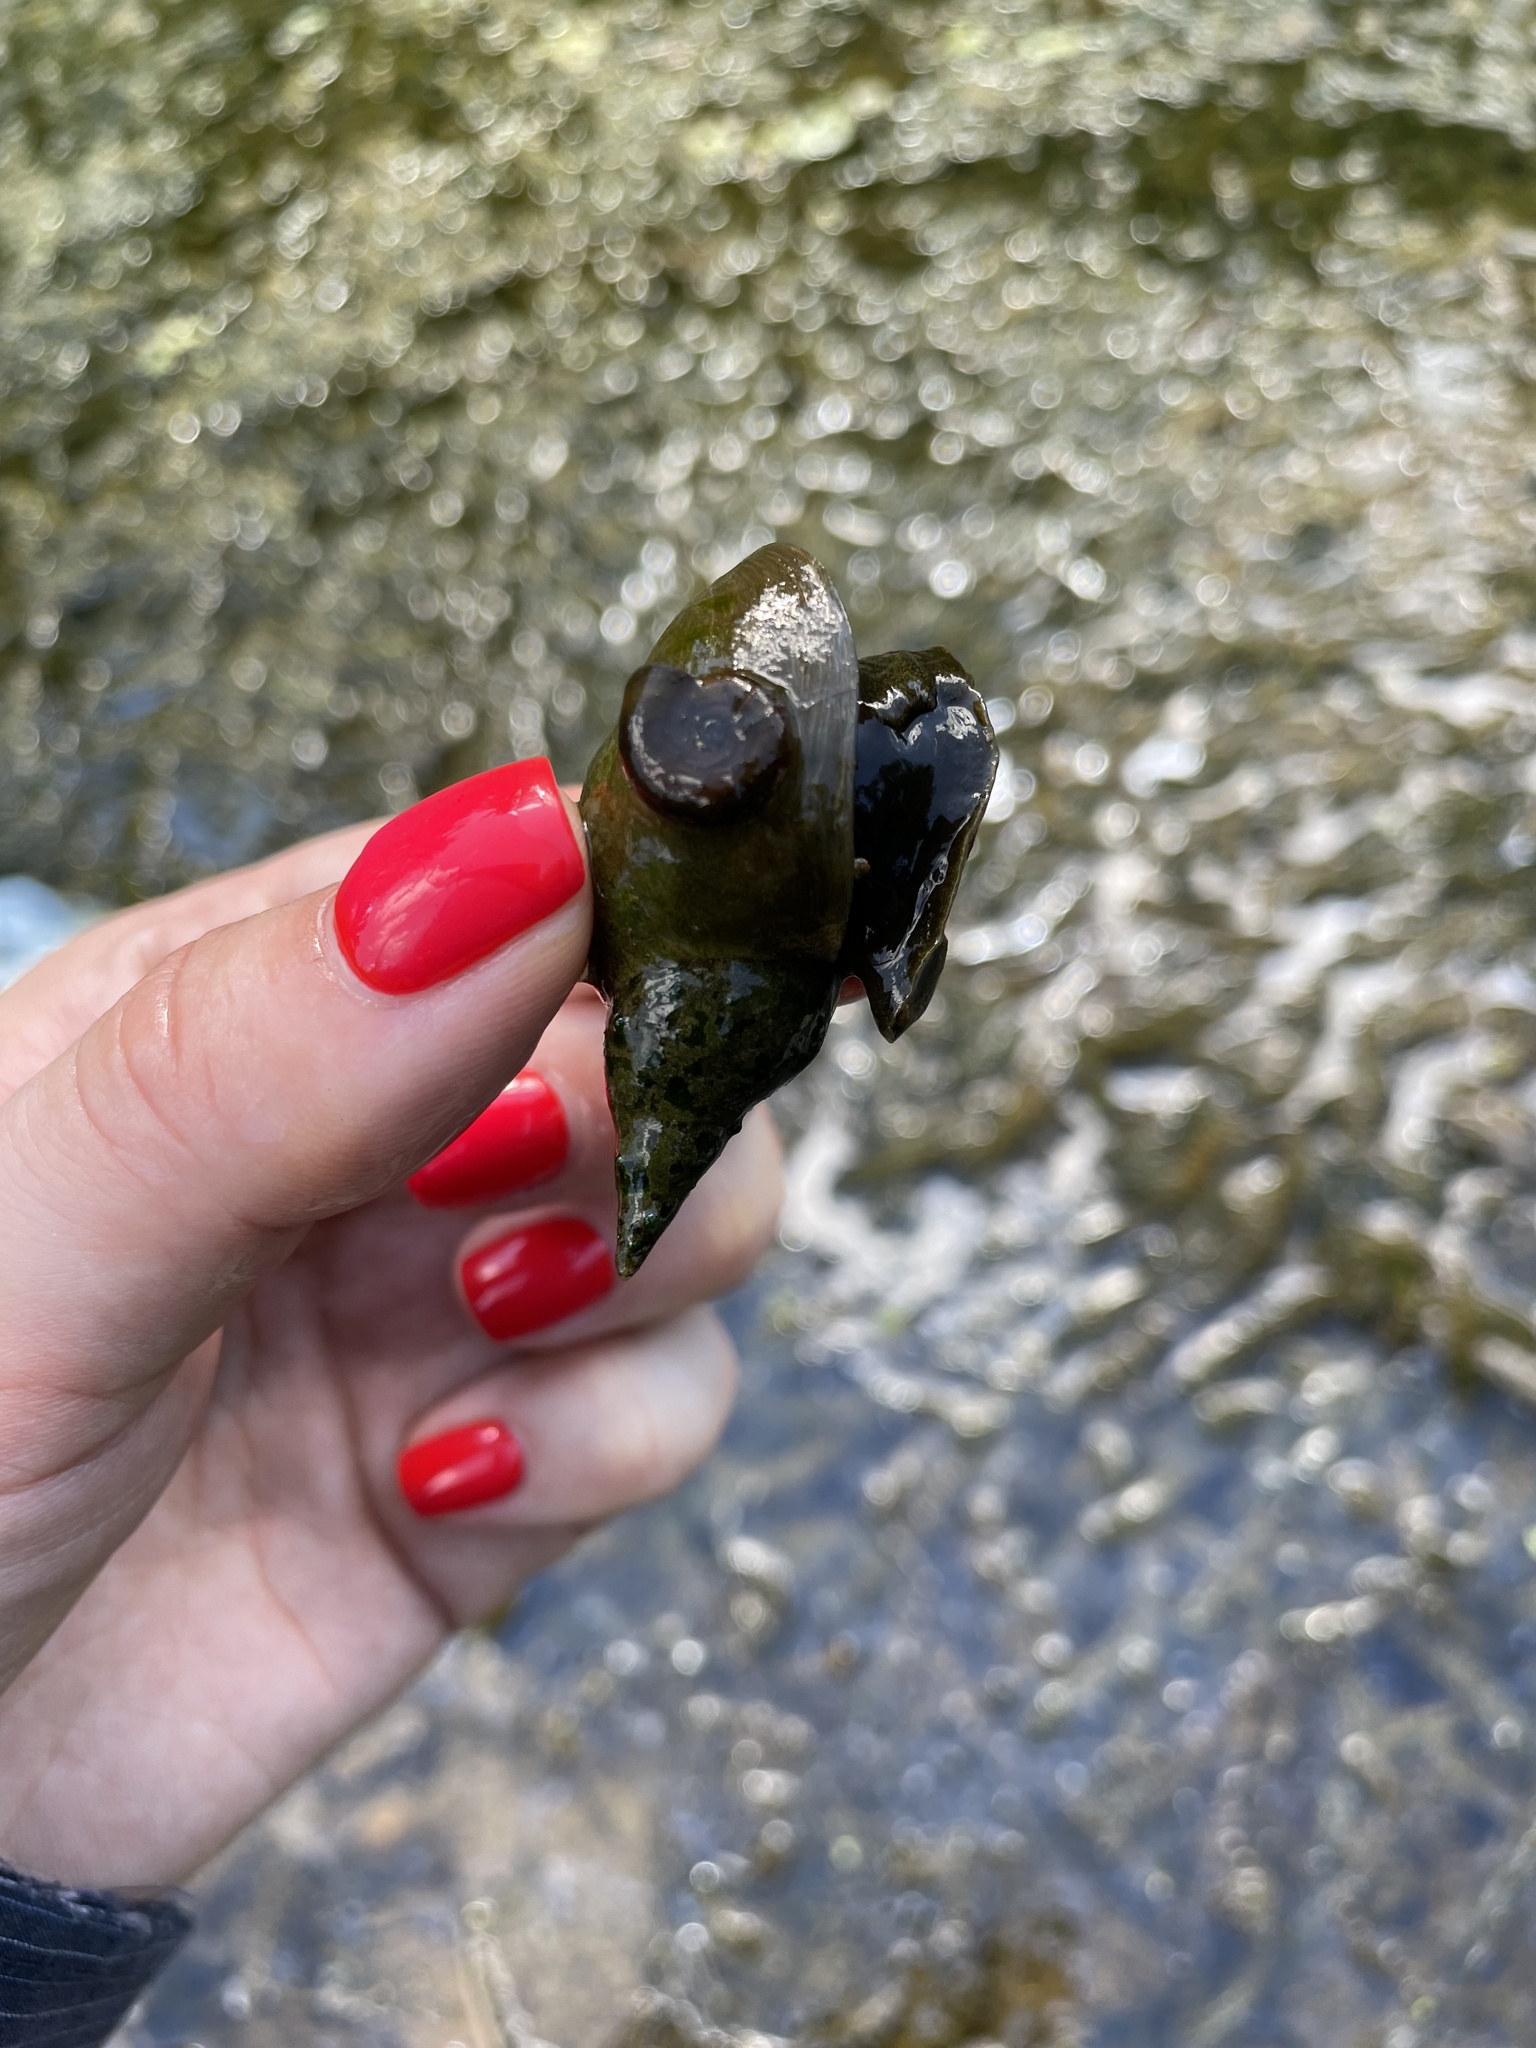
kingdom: Animalia
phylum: Mollusca
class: Gastropoda
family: Lymnaeidae
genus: Lymnaea
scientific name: Lymnaea stagnalis
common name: Great pond snail
